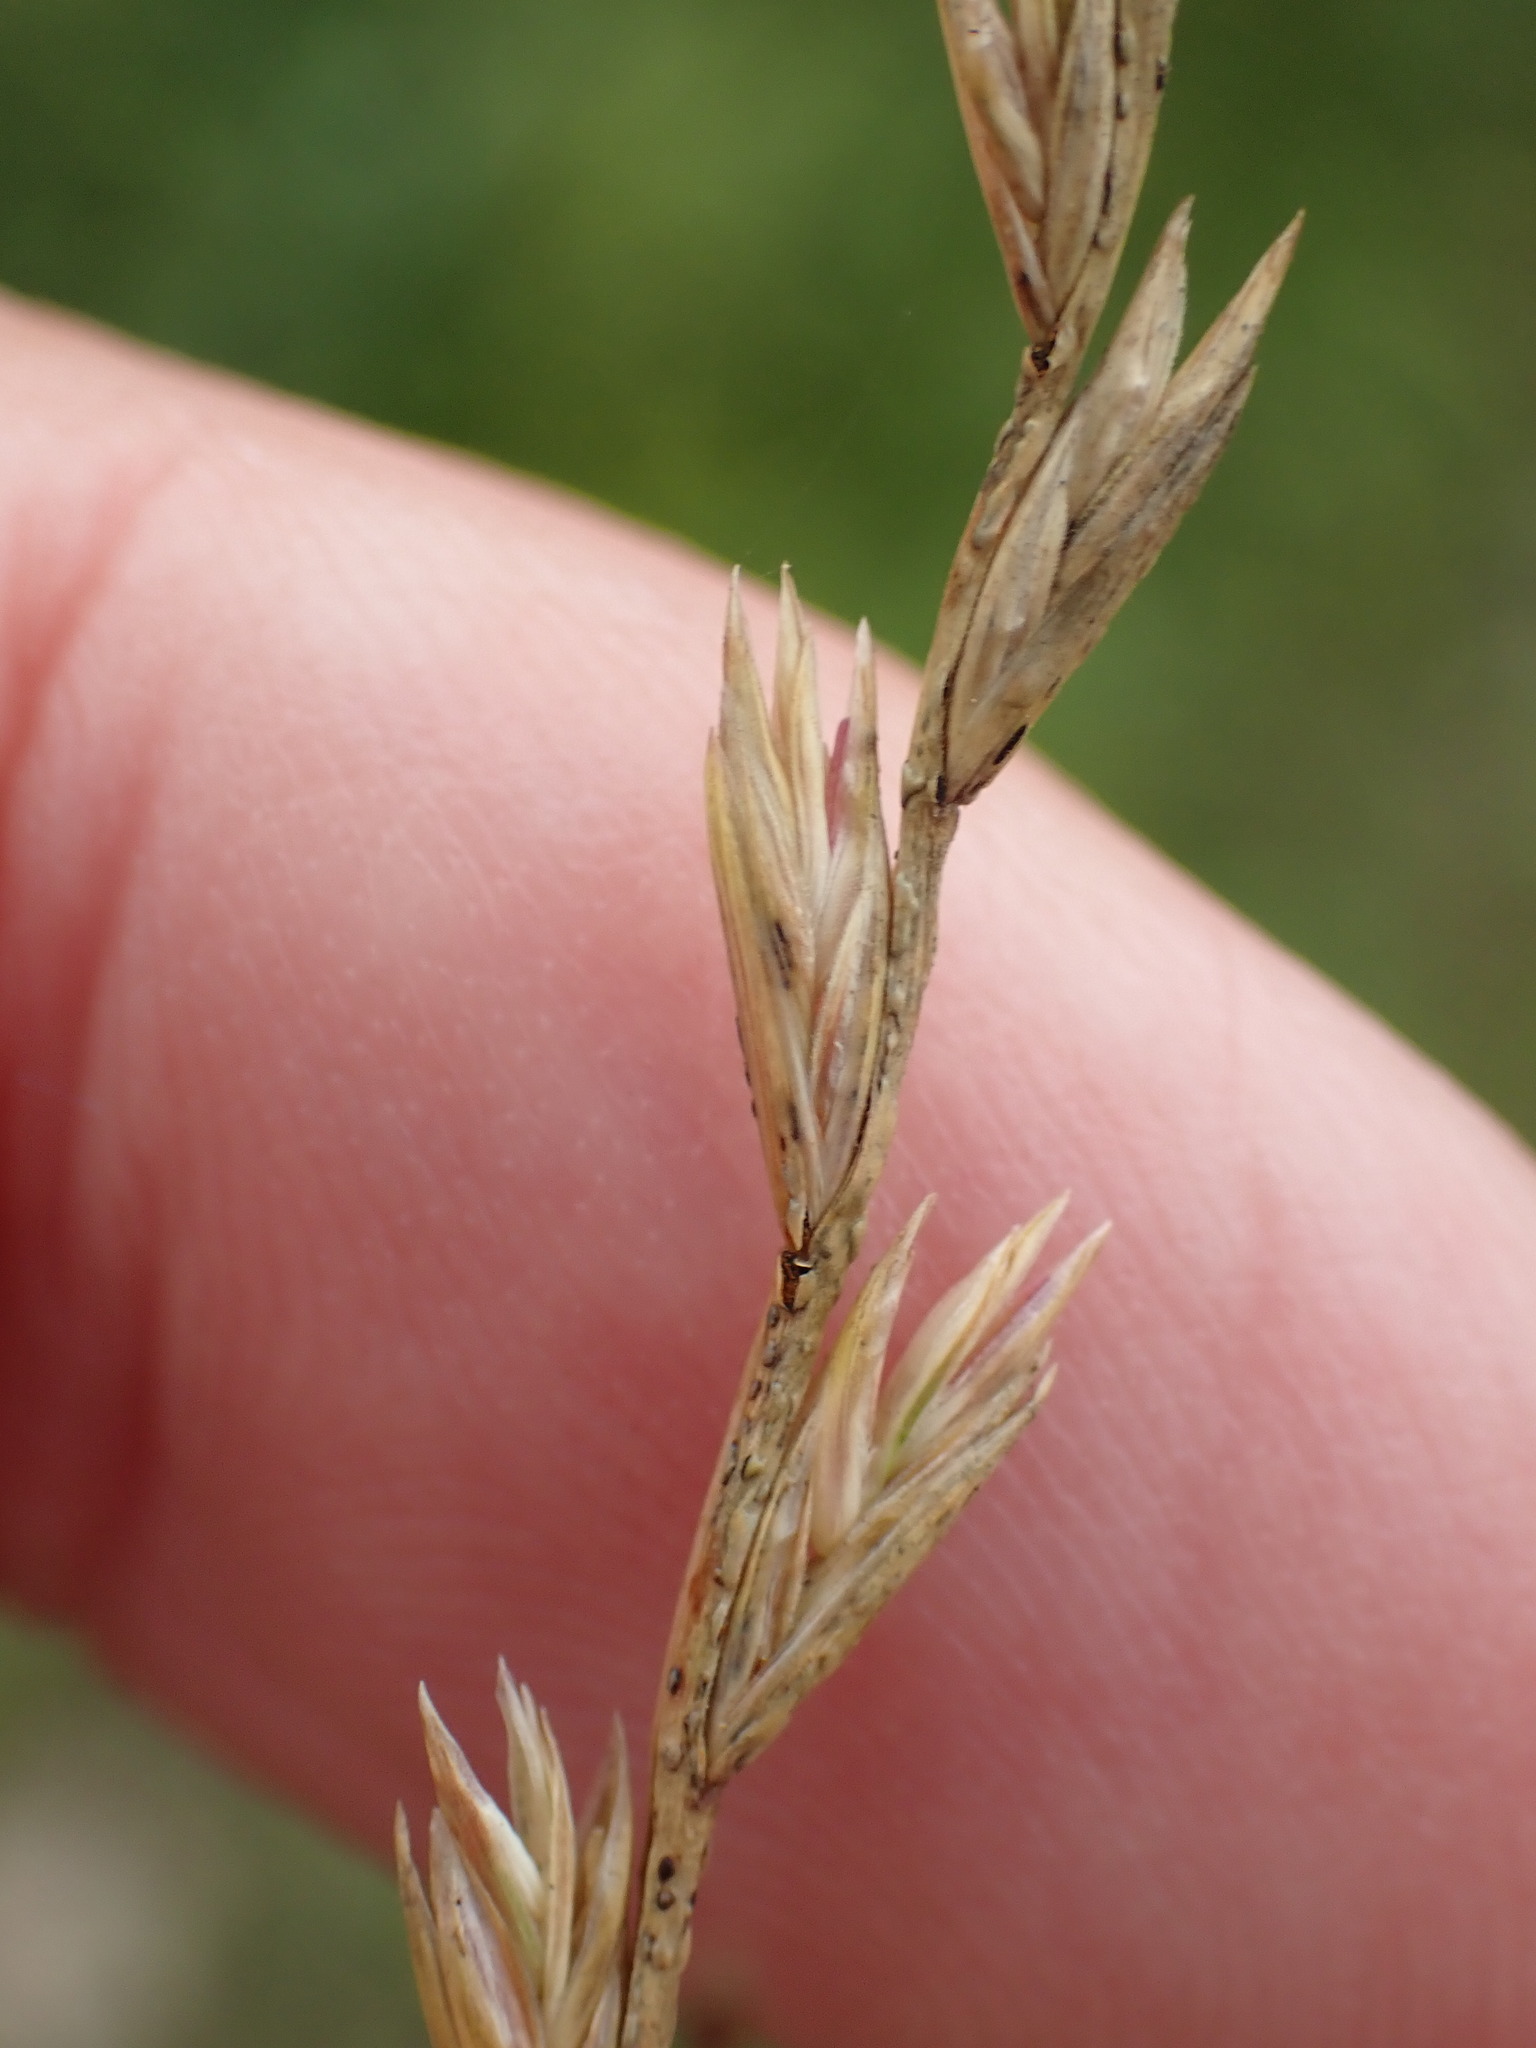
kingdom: Plantae
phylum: Tracheophyta
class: Liliopsida
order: Poales
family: Poaceae
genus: Lolium
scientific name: Lolium perenne
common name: Perennial ryegrass
